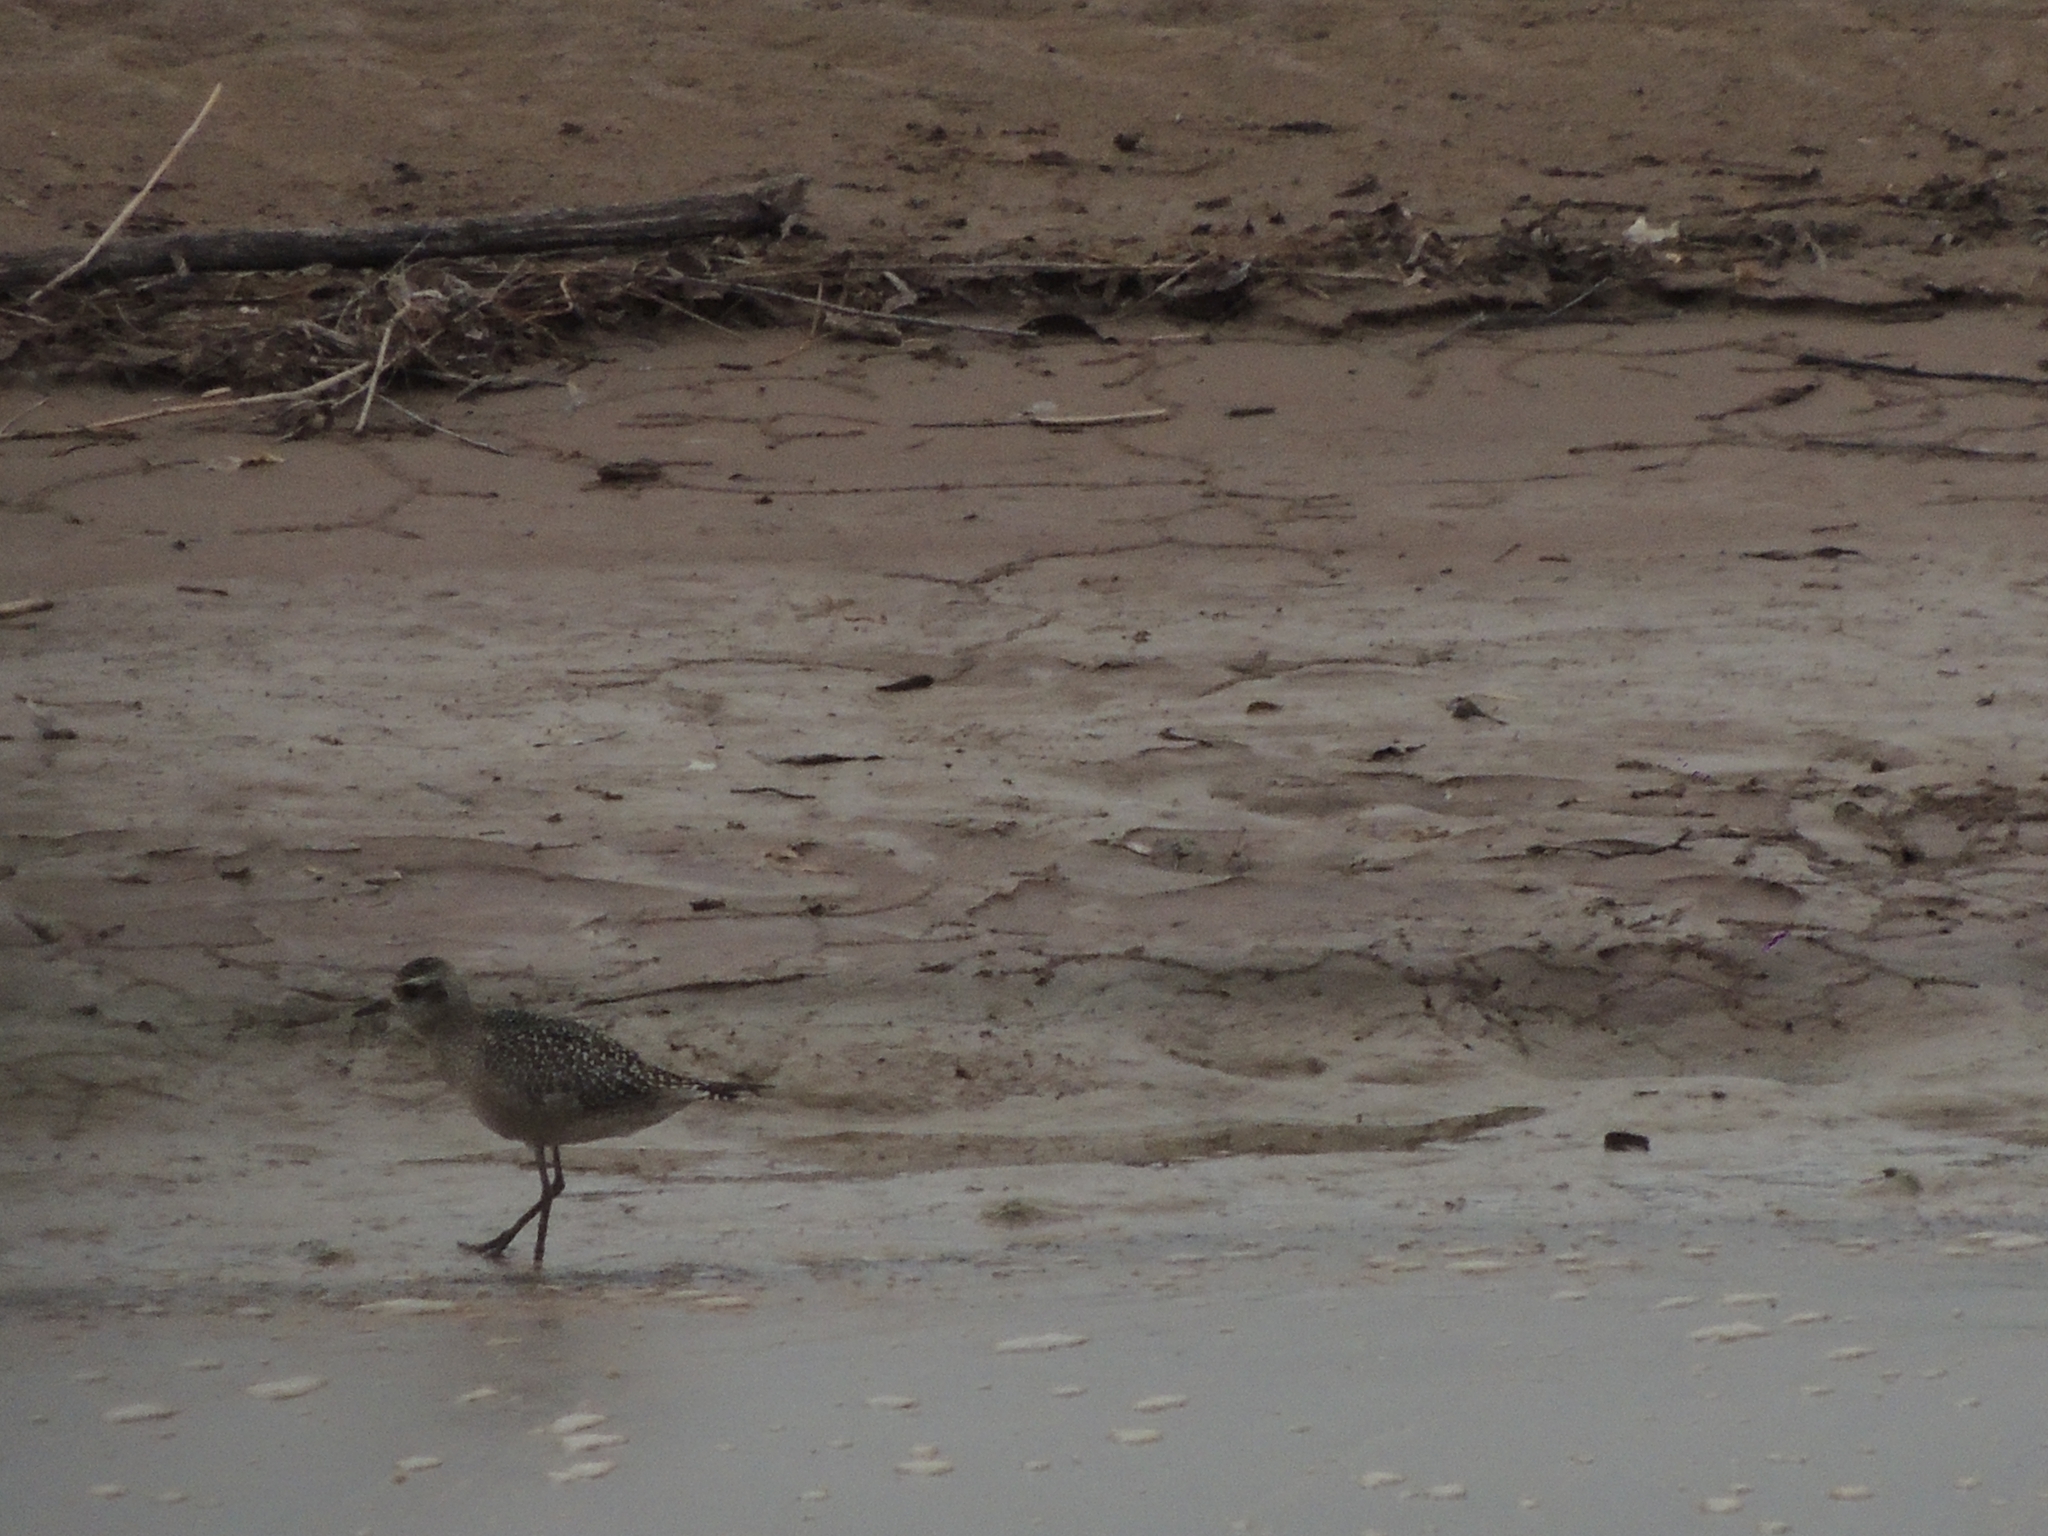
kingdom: Animalia
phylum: Chordata
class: Aves
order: Charadriiformes
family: Charadriidae
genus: Pluvialis
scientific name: Pluvialis dominica
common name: American golden plover
